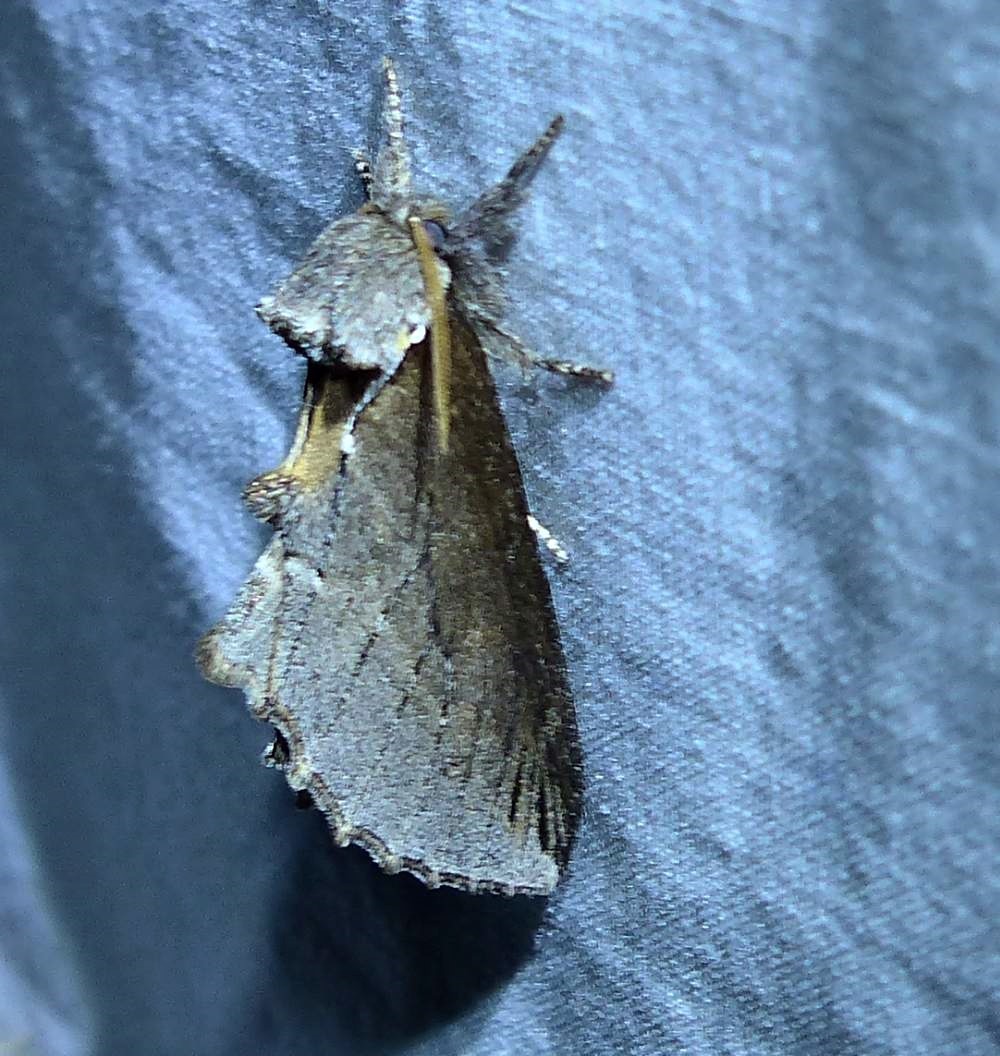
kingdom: Animalia
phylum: Arthropoda
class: Insecta
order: Lepidoptera
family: Notodontidae
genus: Pheosidea
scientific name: Pheosidea elegans
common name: Elegant prominent
